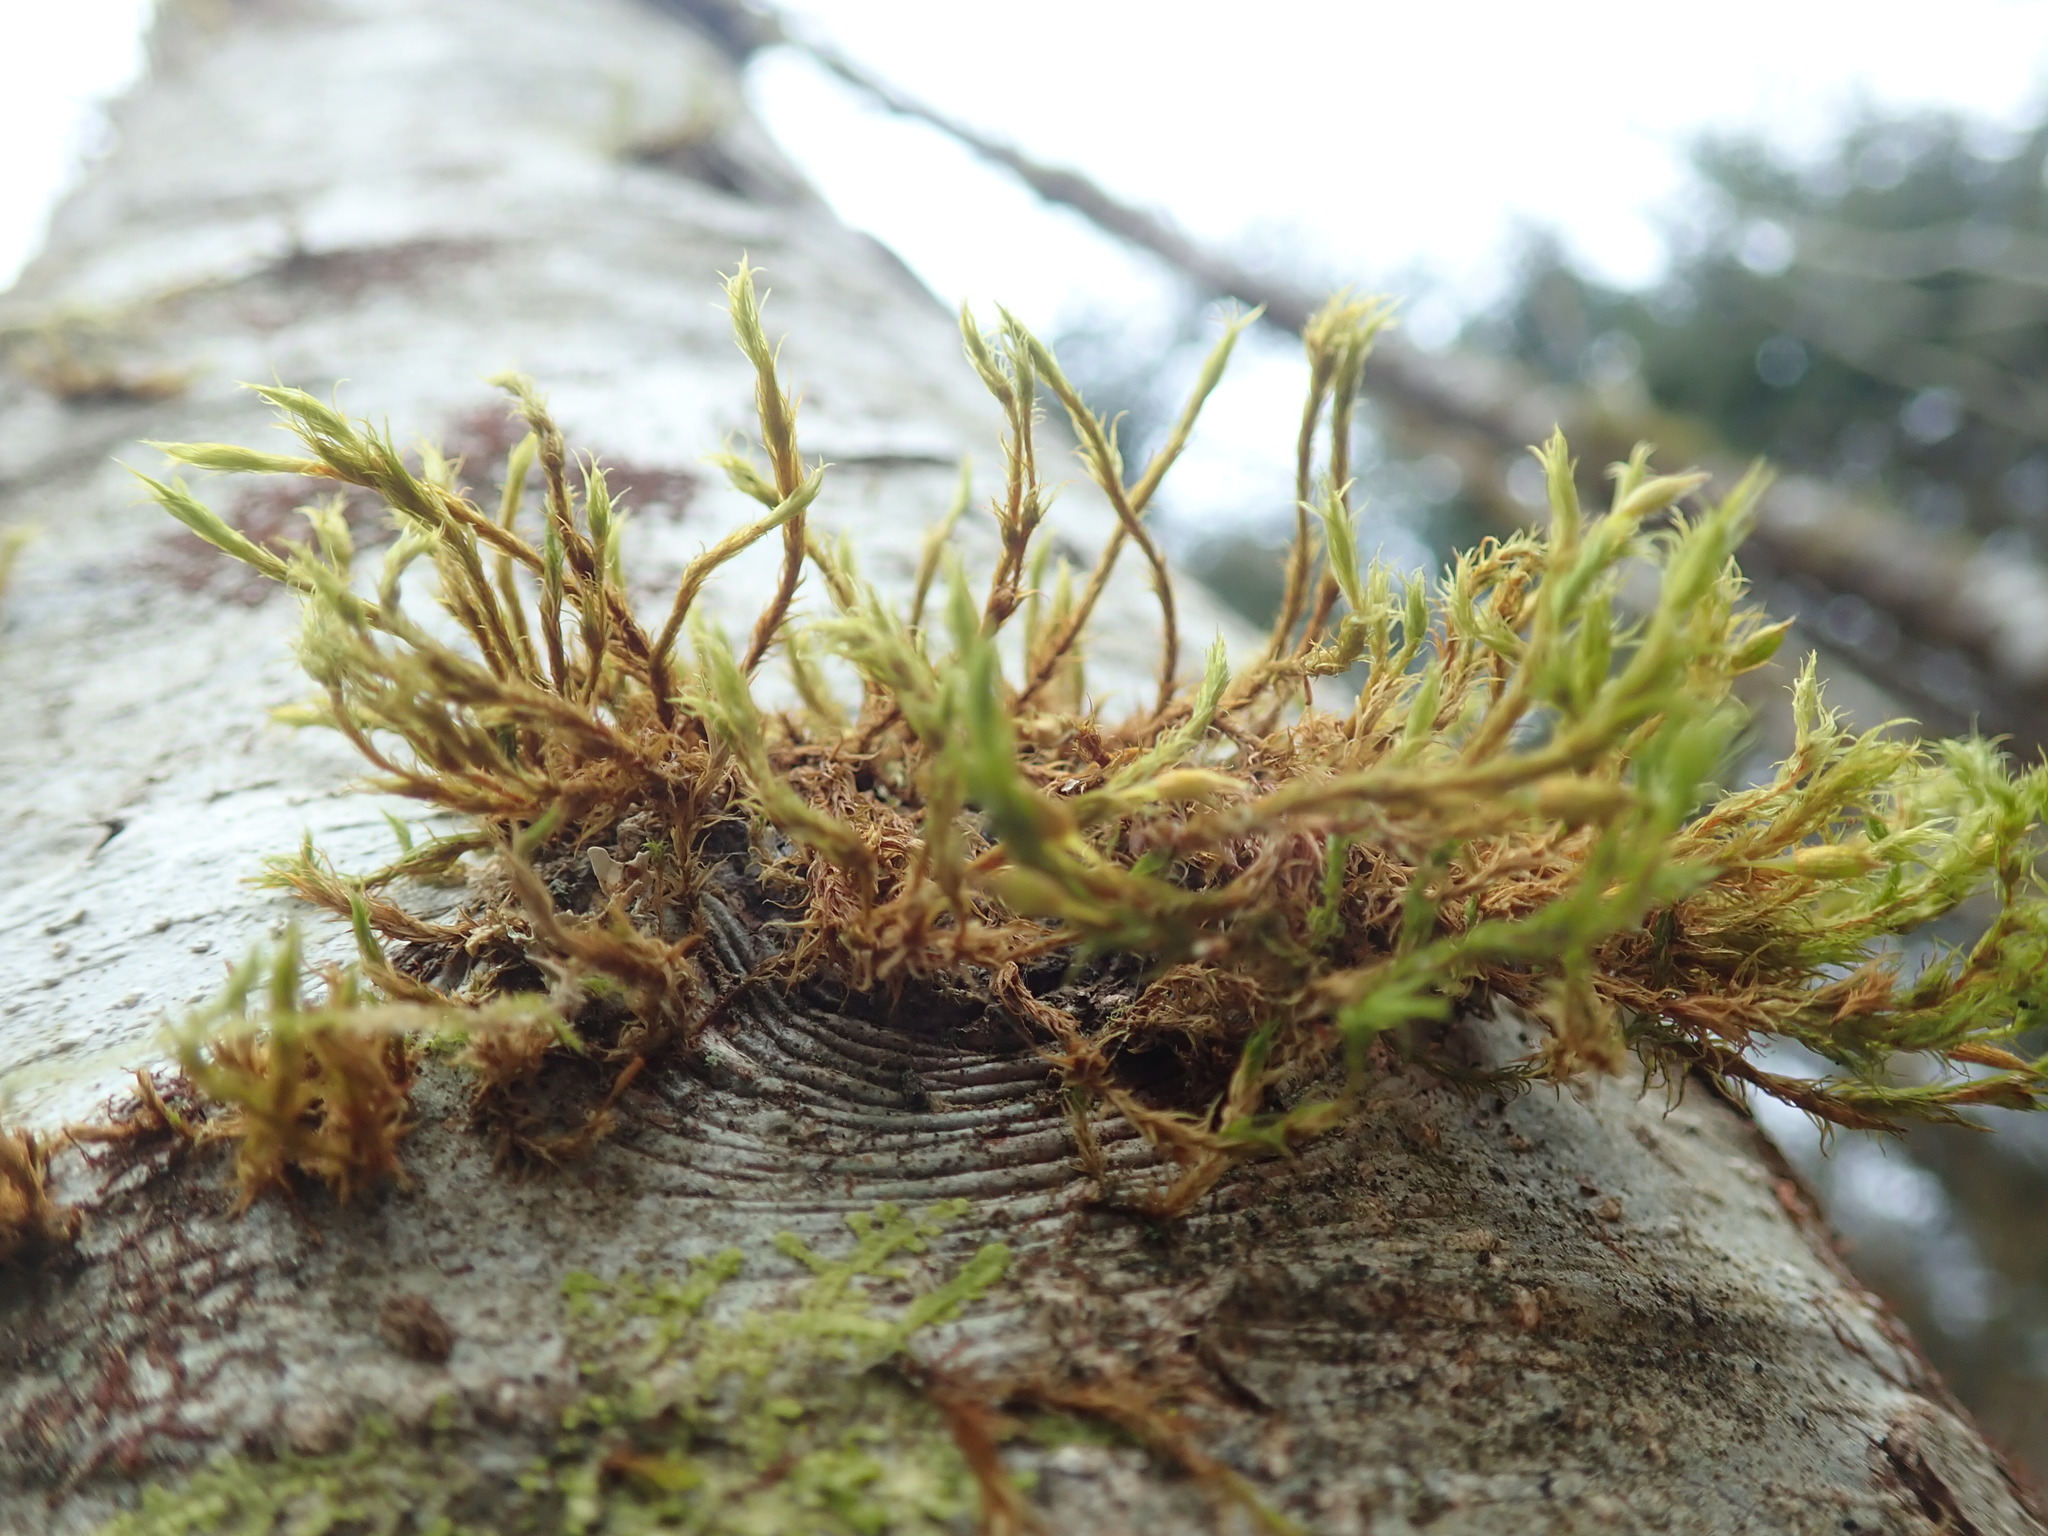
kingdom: Plantae
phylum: Bryophyta
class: Bryopsida
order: Orthotrichales
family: Orthotrichaceae
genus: Pulvigera
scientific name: Pulvigera papillosa
